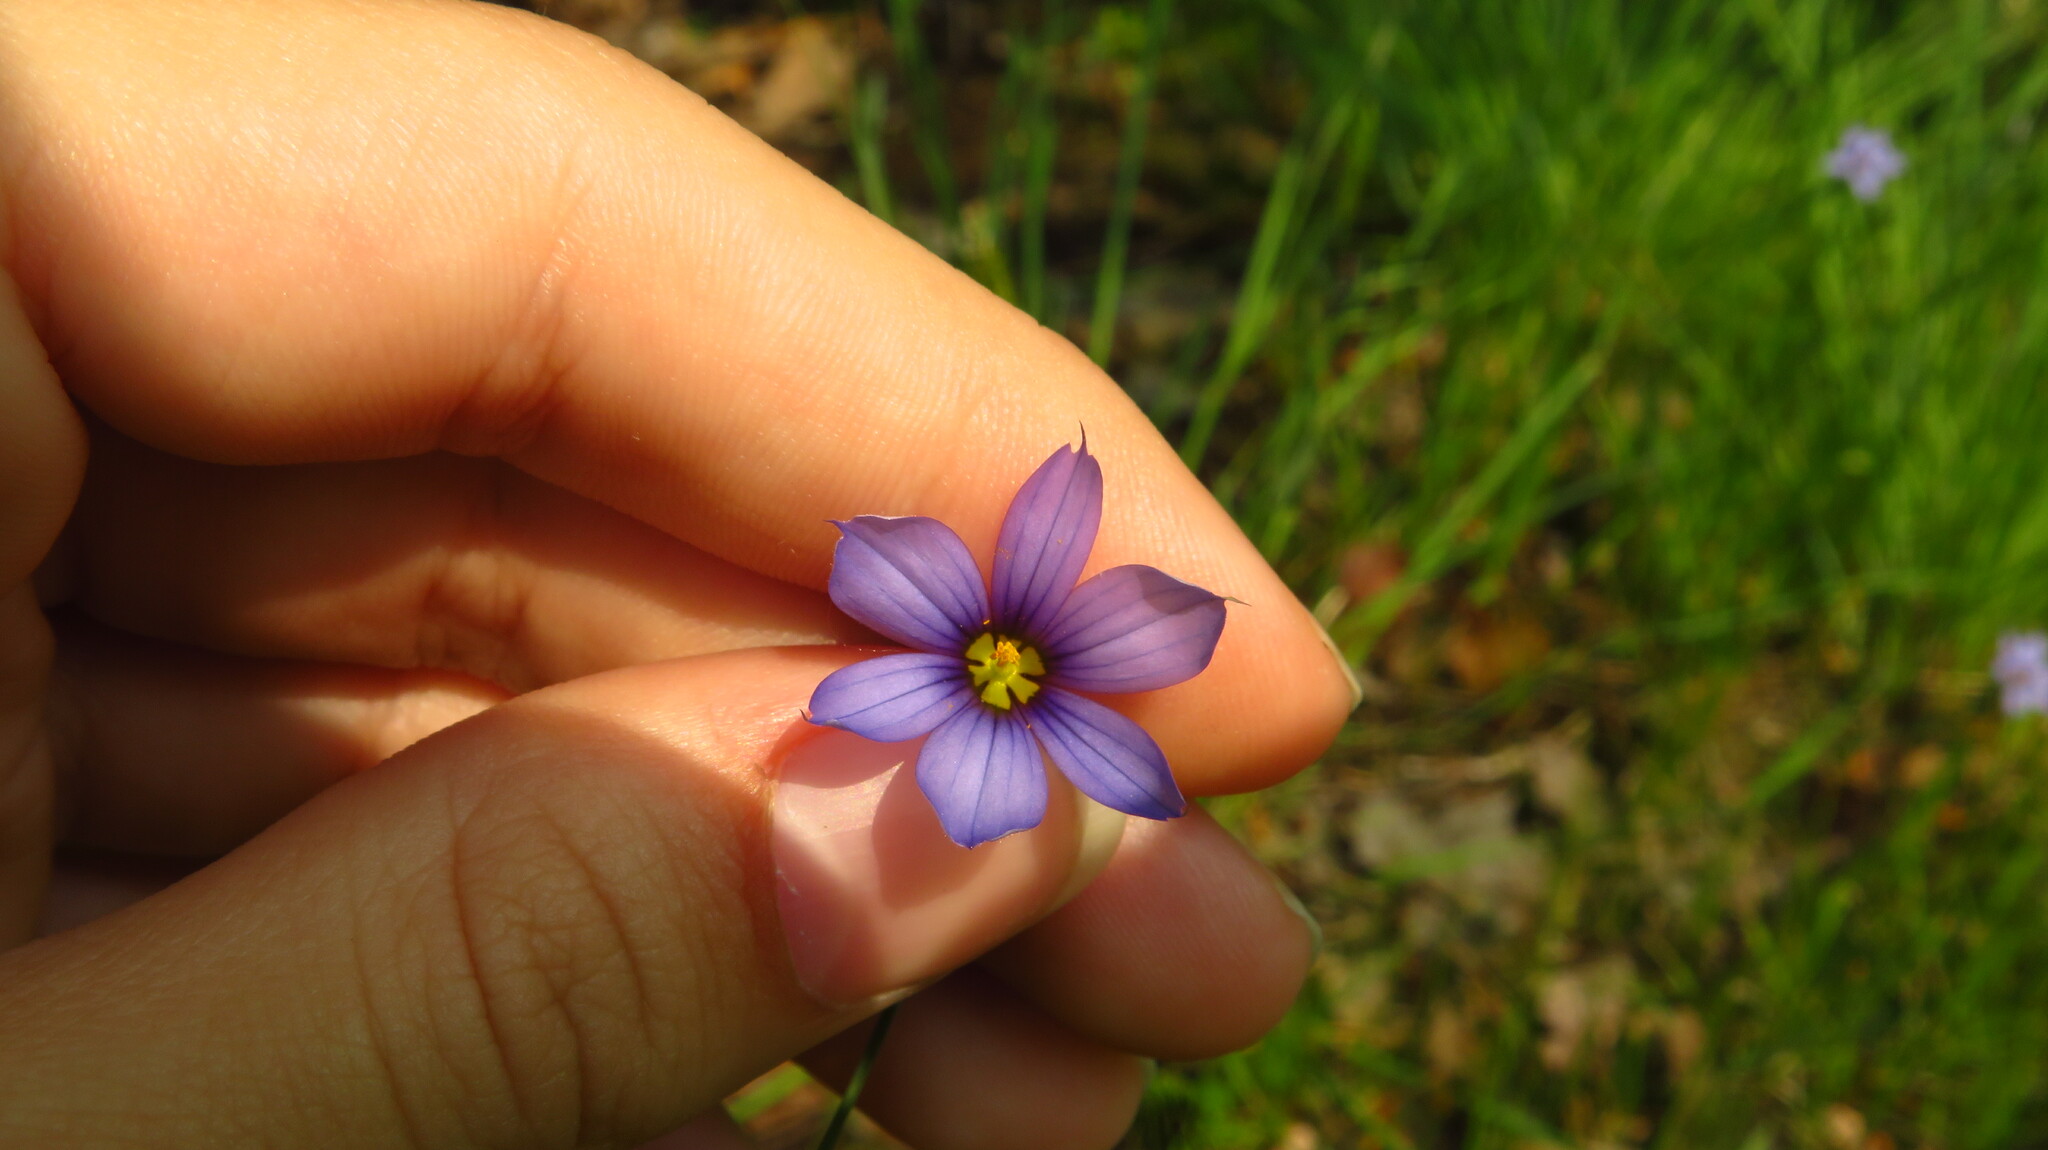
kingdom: Plantae
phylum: Tracheophyta
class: Liliopsida
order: Asparagales
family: Iridaceae
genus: Sisyrinchium
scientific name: Sisyrinchium montanum
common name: American blue-eyed-grass
